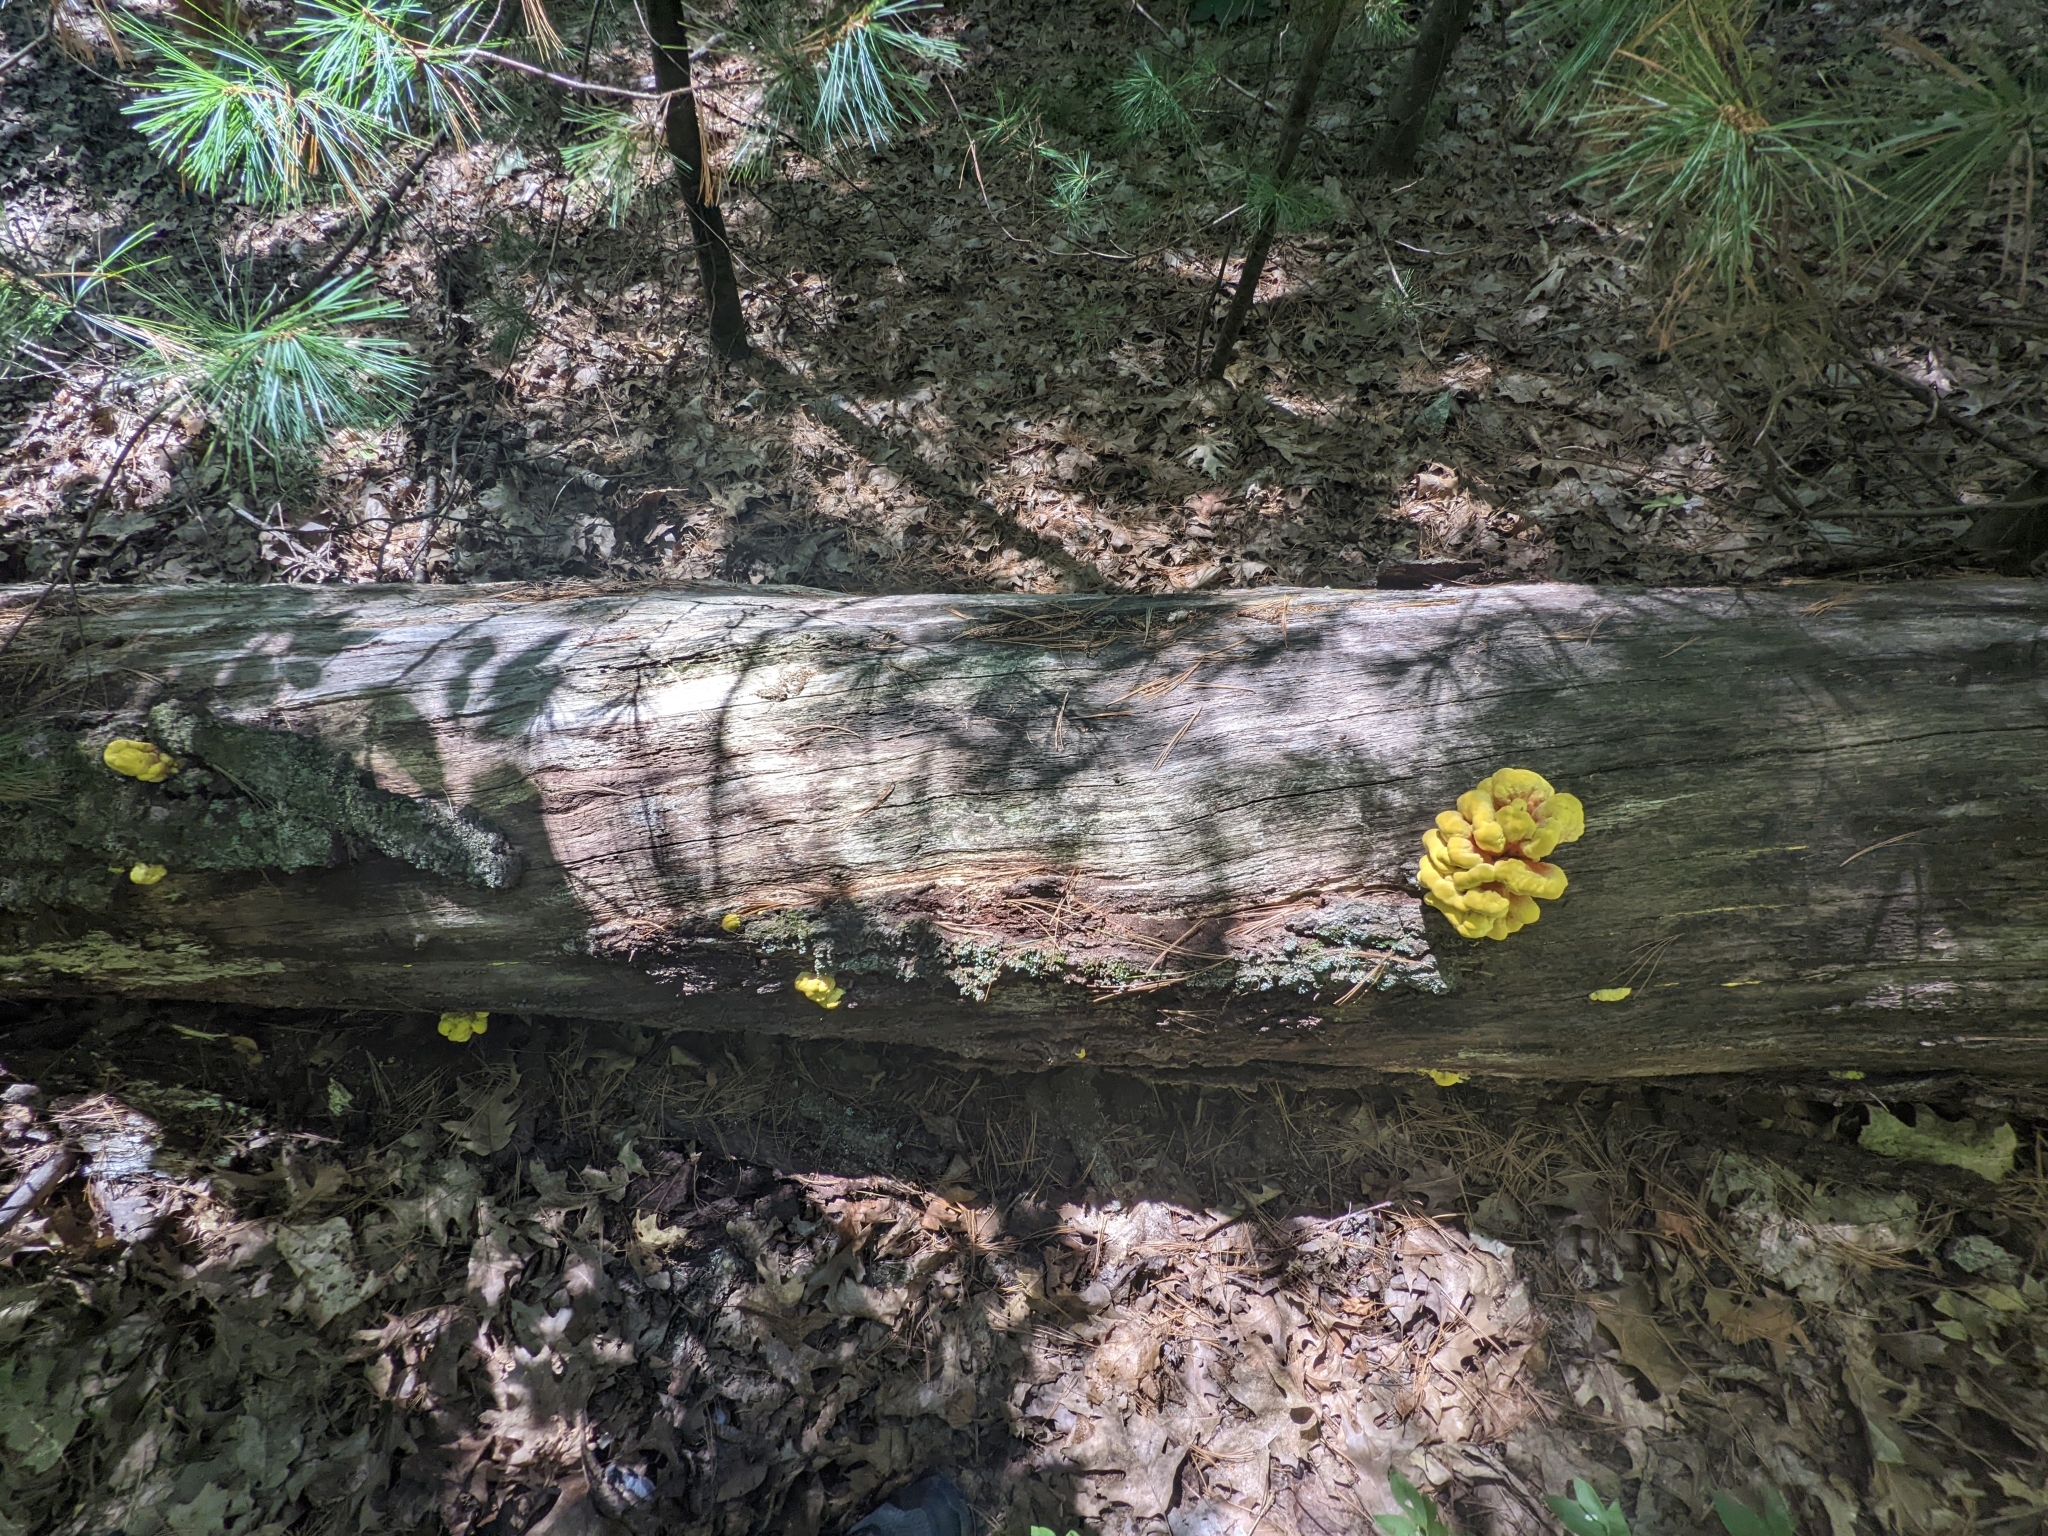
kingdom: Fungi
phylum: Basidiomycota
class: Agaricomycetes
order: Polyporales
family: Laetiporaceae
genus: Laetiporus
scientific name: Laetiporus sulphureus
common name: Chicken of the woods
